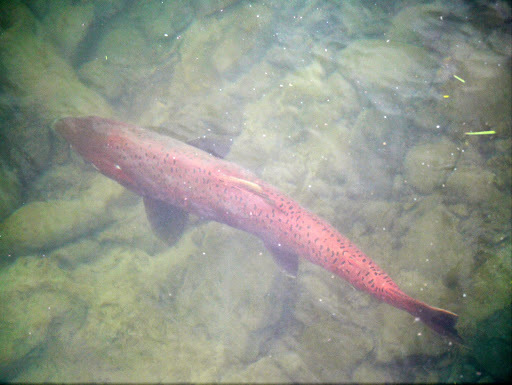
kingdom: Animalia
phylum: Chordata
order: Salmoniformes
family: Salmonidae
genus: Oncorhynchus
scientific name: Oncorhynchus tshawytscha
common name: Chinook salmon
